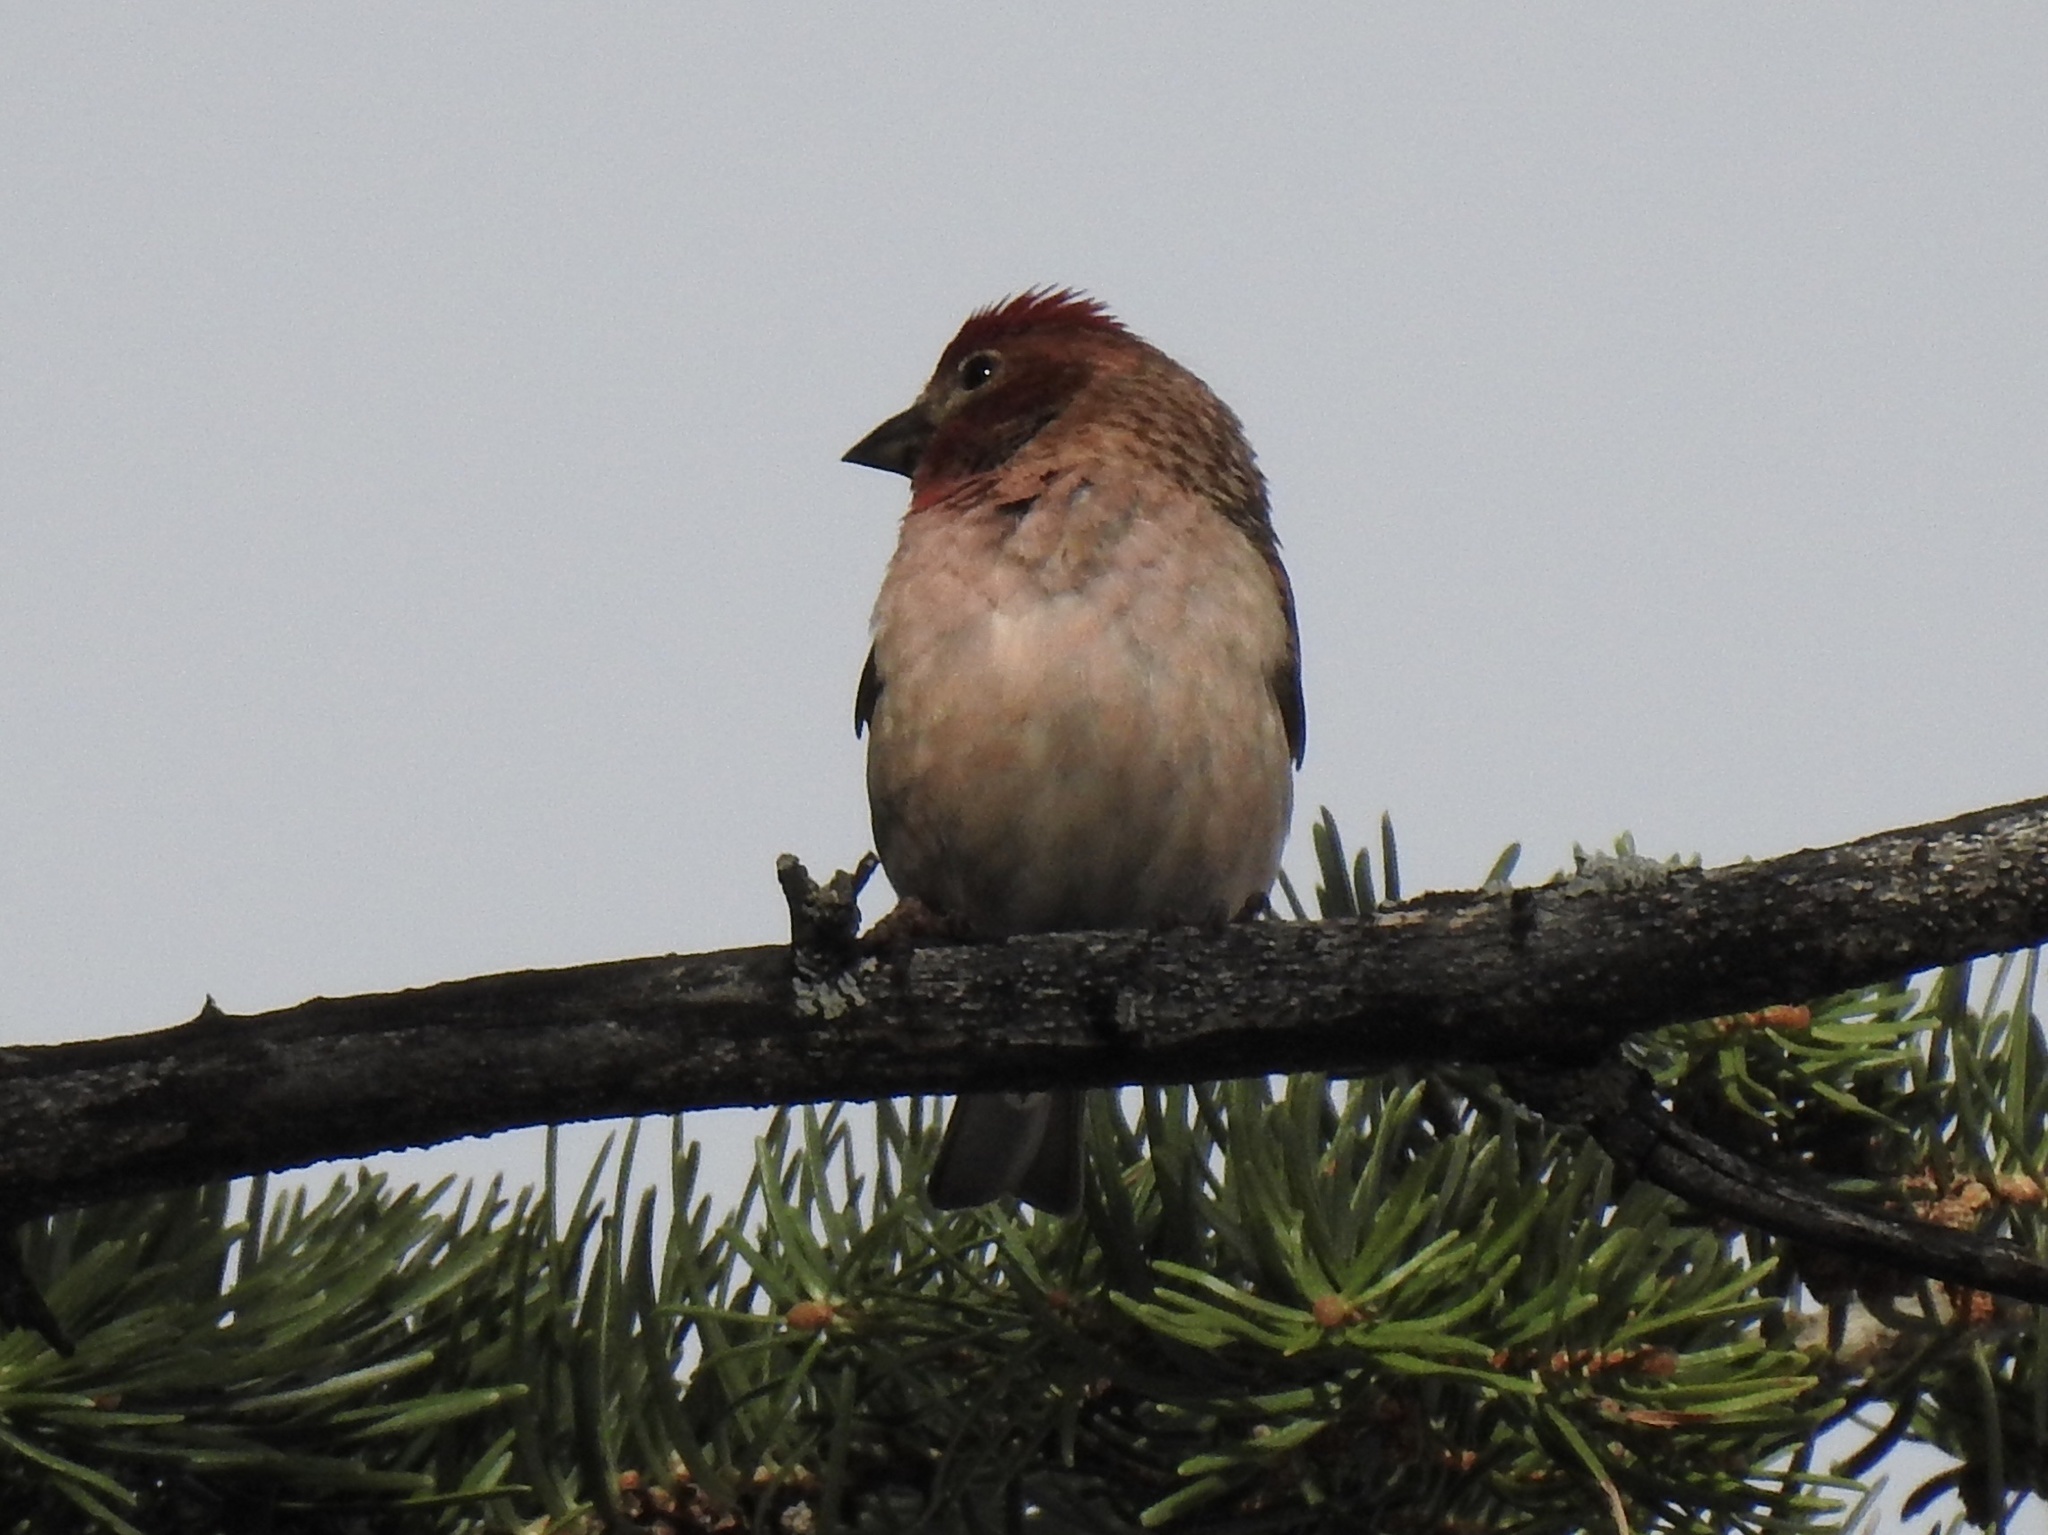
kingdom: Animalia
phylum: Chordata
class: Aves
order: Passeriformes
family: Fringillidae
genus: Haemorhous
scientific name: Haemorhous cassinii
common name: Cassin's finch
